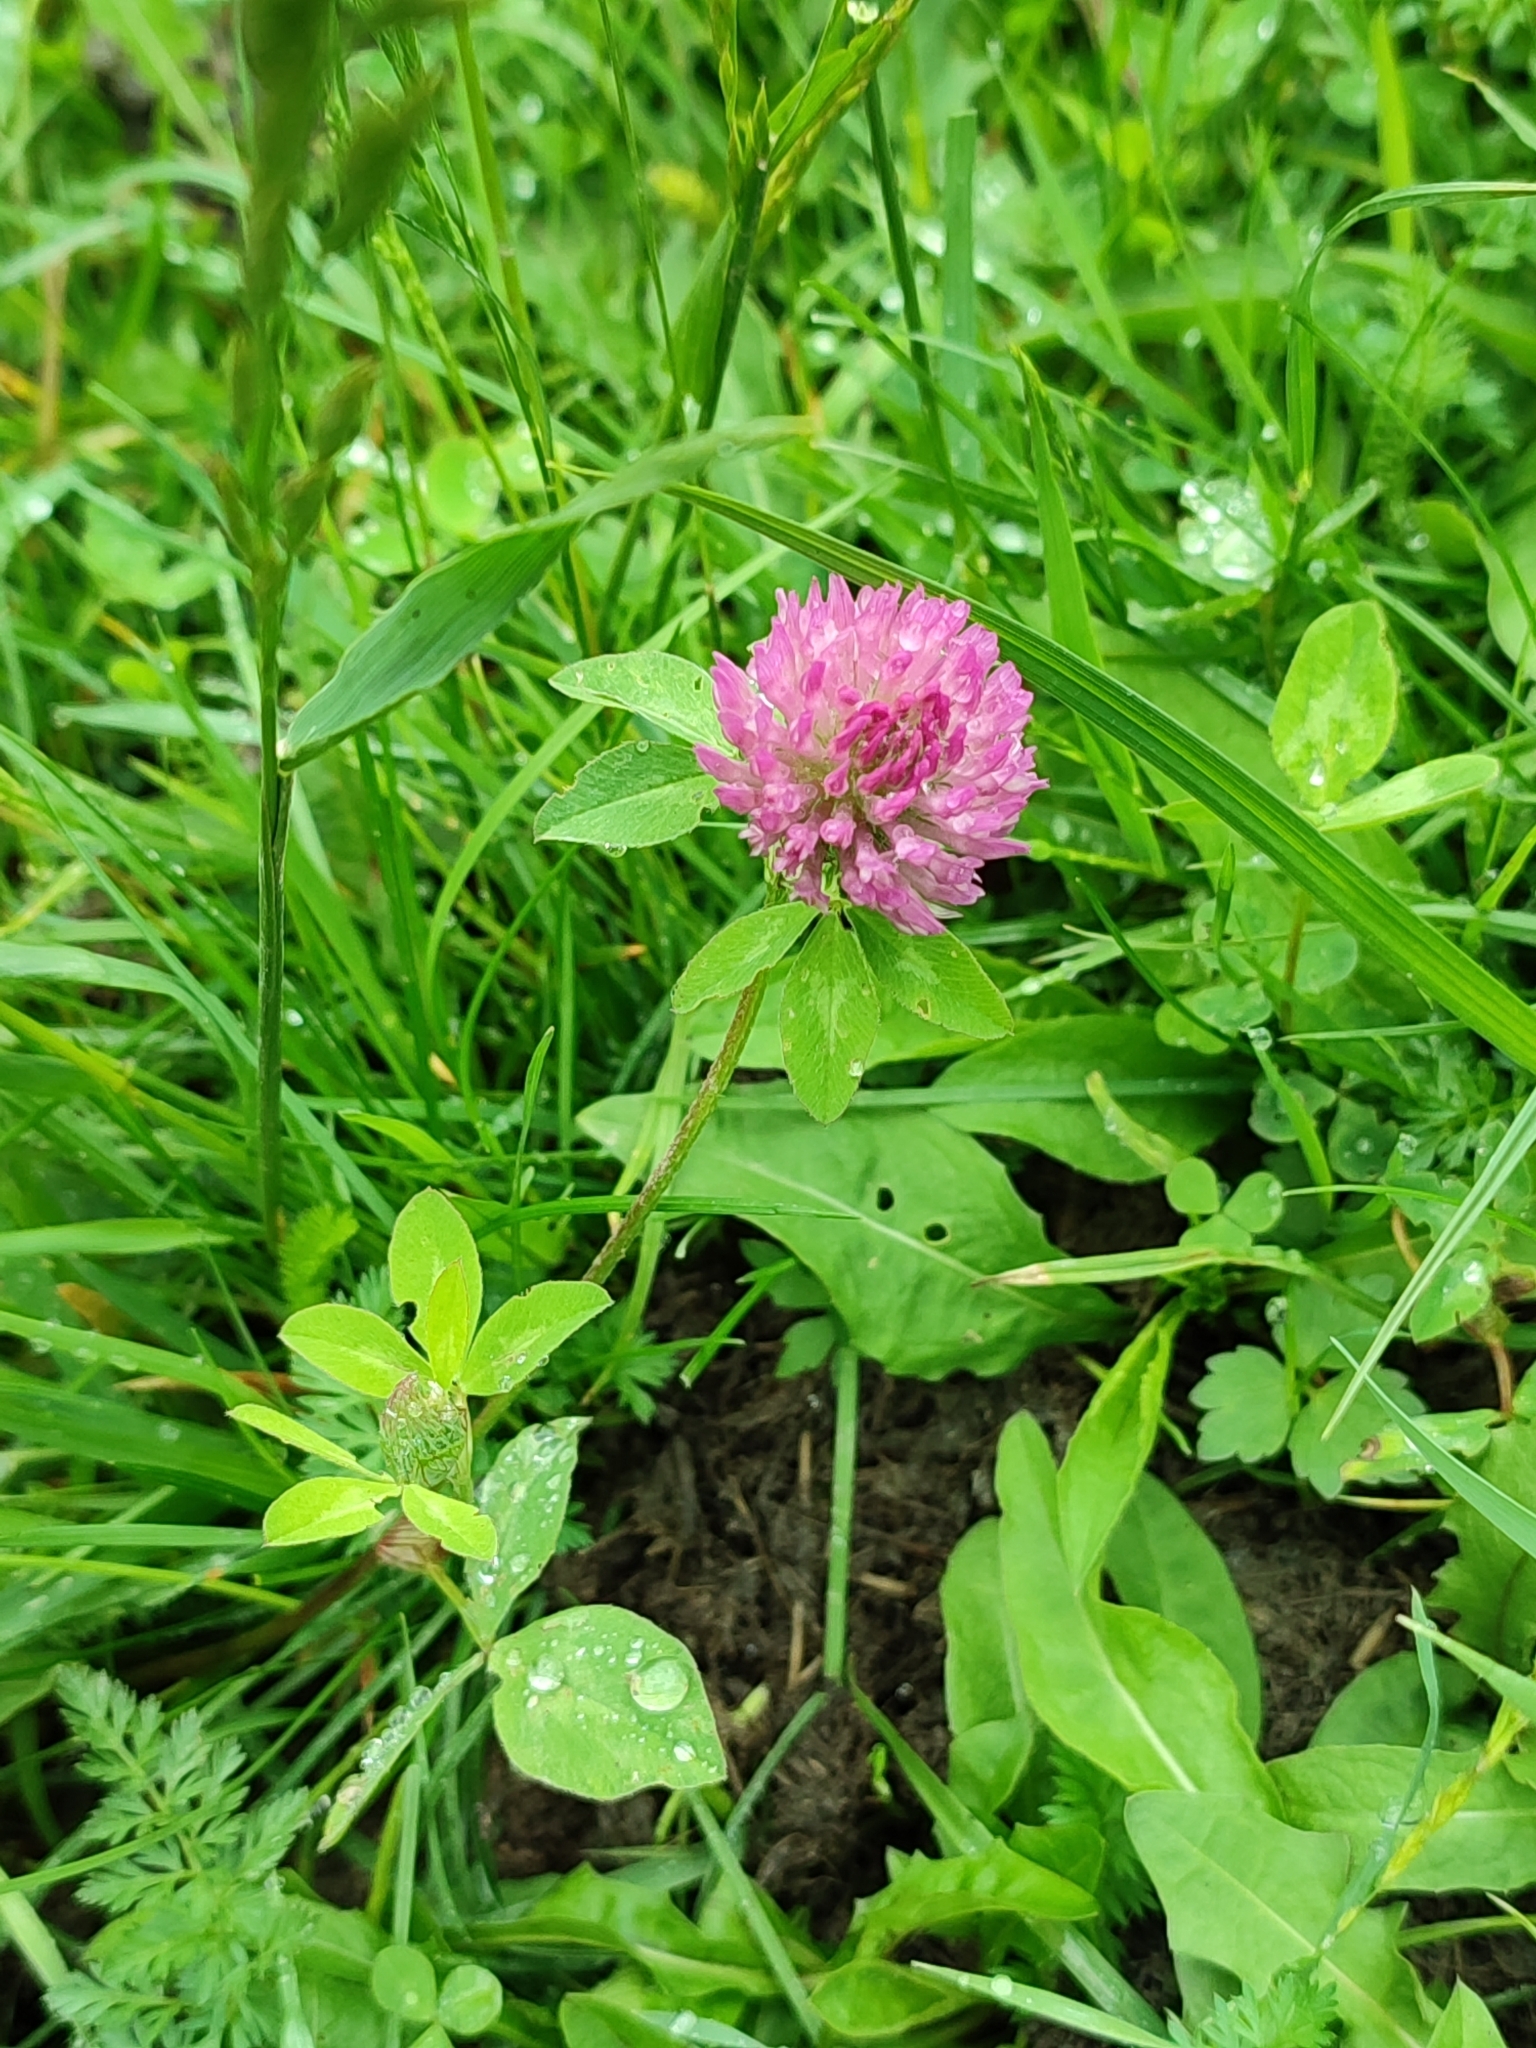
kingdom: Plantae
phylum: Tracheophyta
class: Magnoliopsida
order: Fabales
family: Fabaceae
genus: Trifolium
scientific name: Trifolium pratense
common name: Red clover
